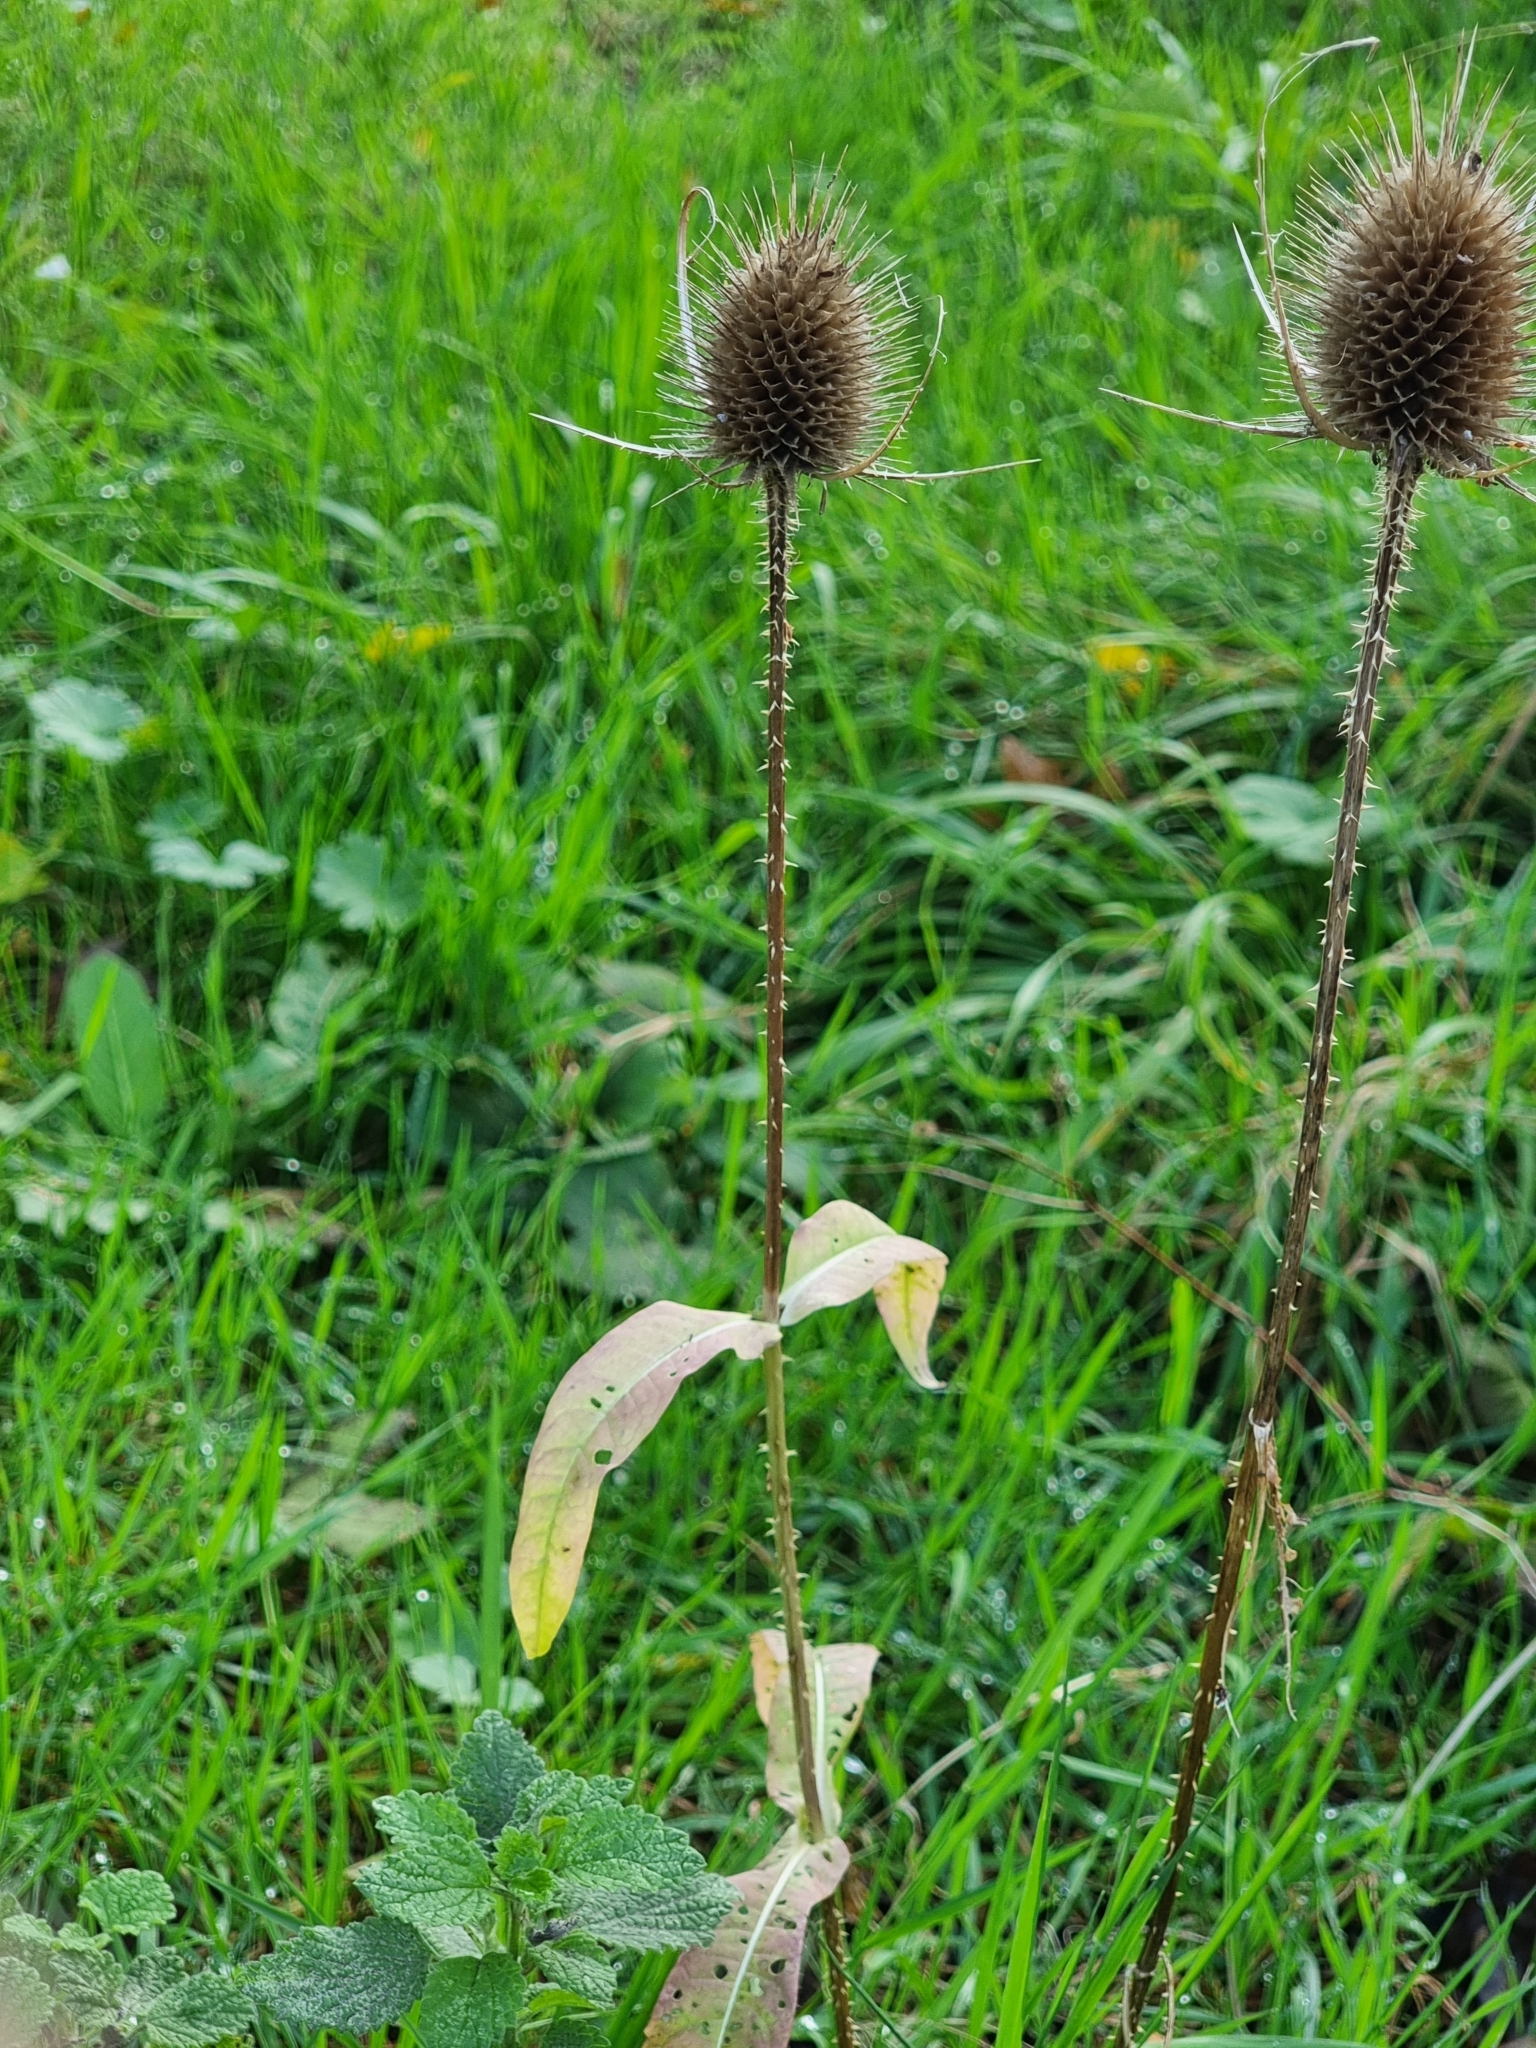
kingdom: Plantae
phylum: Tracheophyta
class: Magnoliopsida
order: Dipsacales
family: Caprifoliaceae
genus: Dipsacus
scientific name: Dipsacus fullonum
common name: Teasel
